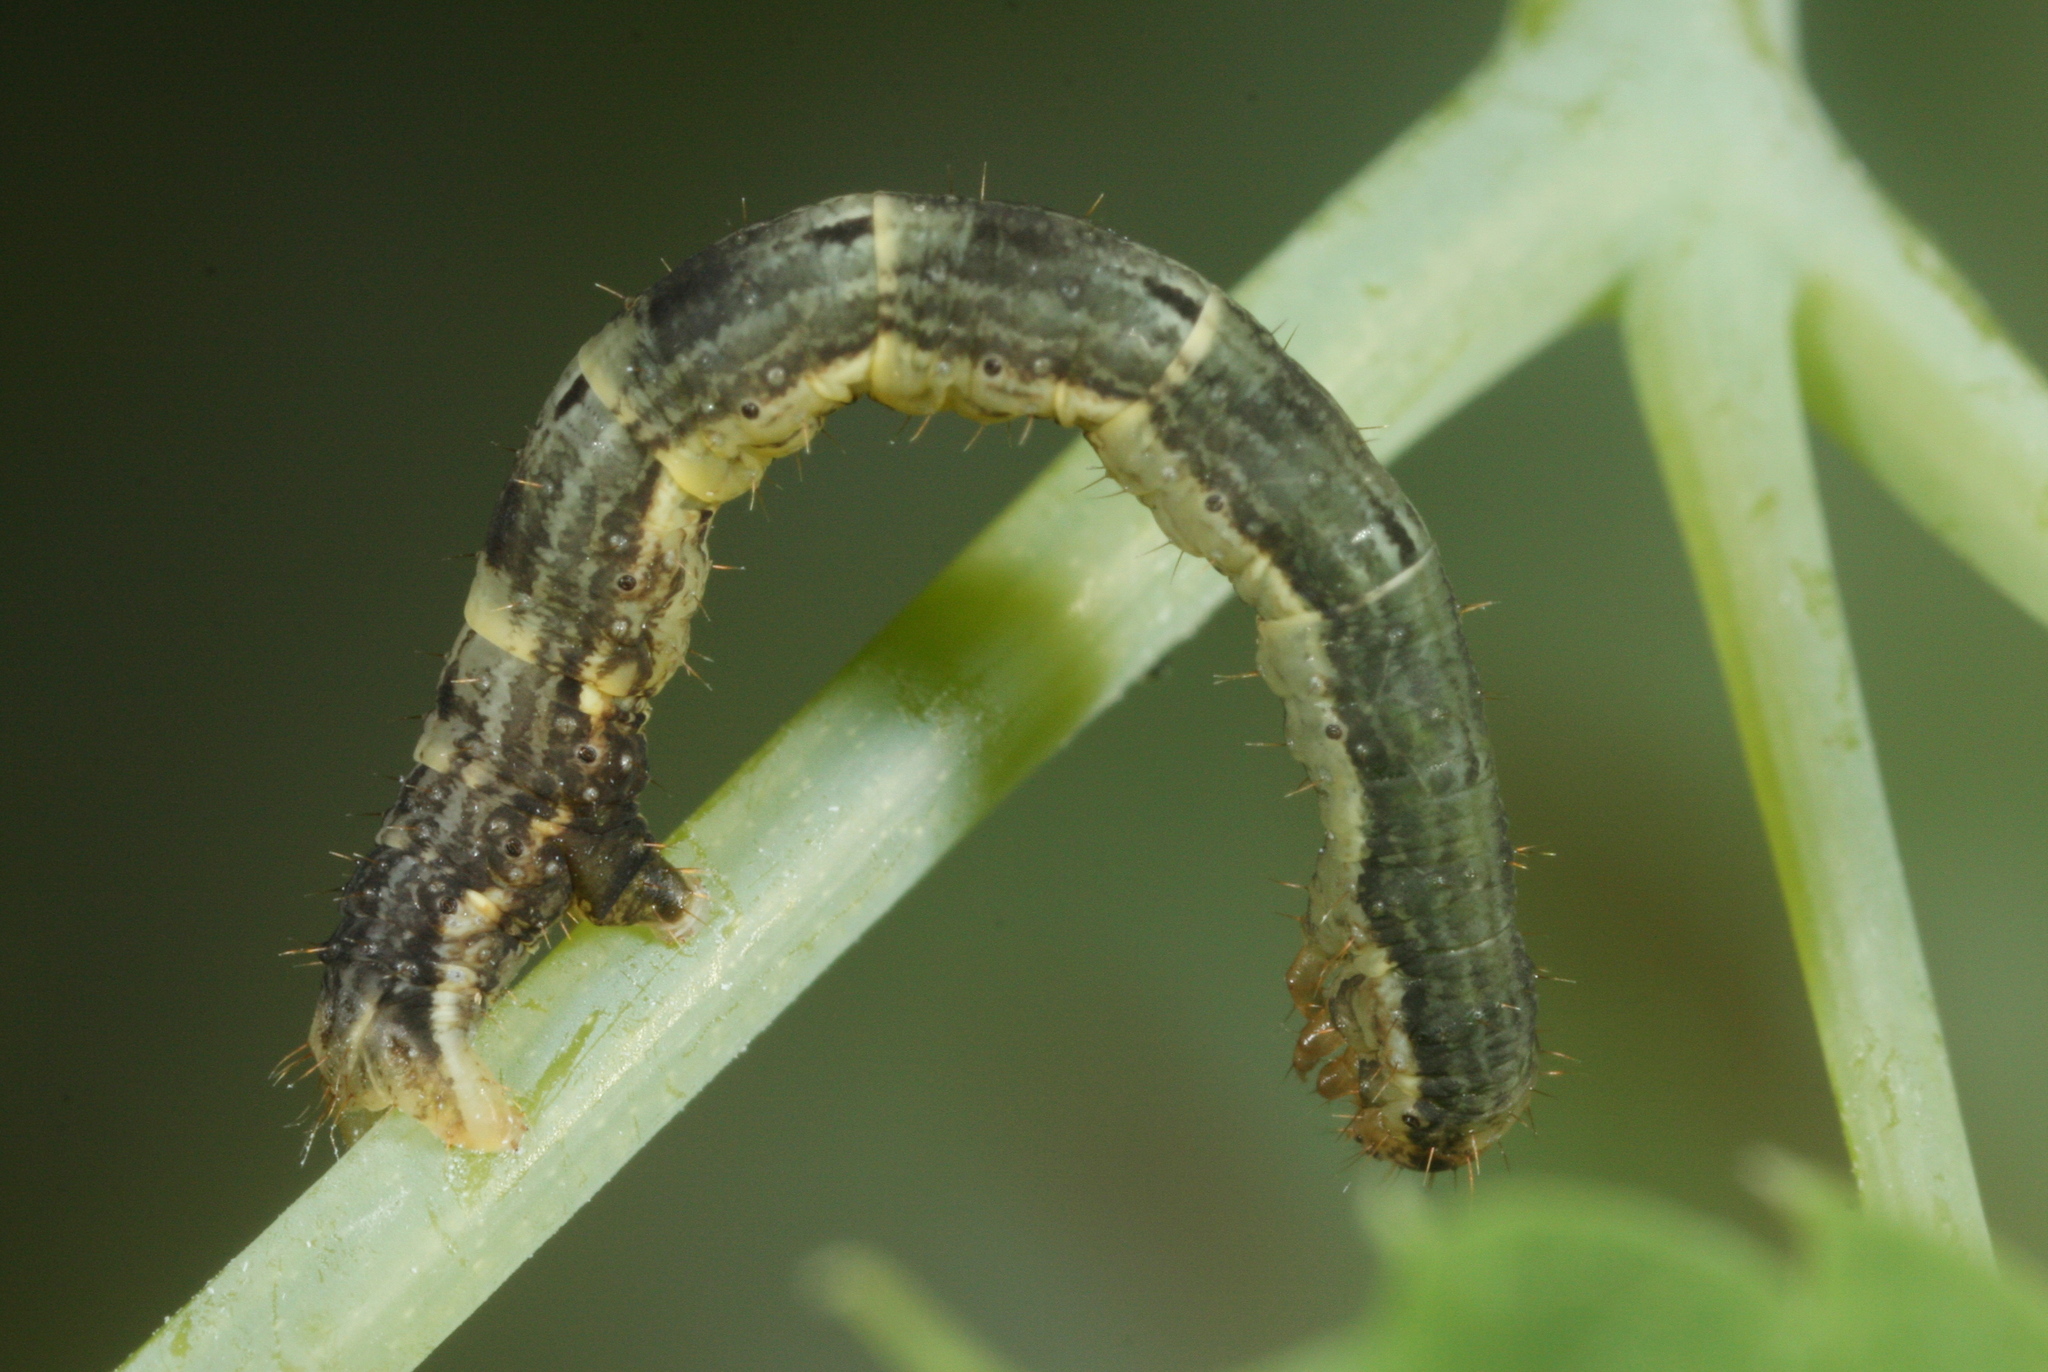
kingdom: Animalia
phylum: Arthropoda
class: Insecta
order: Lepidoptera
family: Geometridae
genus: Xanthorhoe
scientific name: Xanthorhoe biriviata
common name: Balsam carpet
